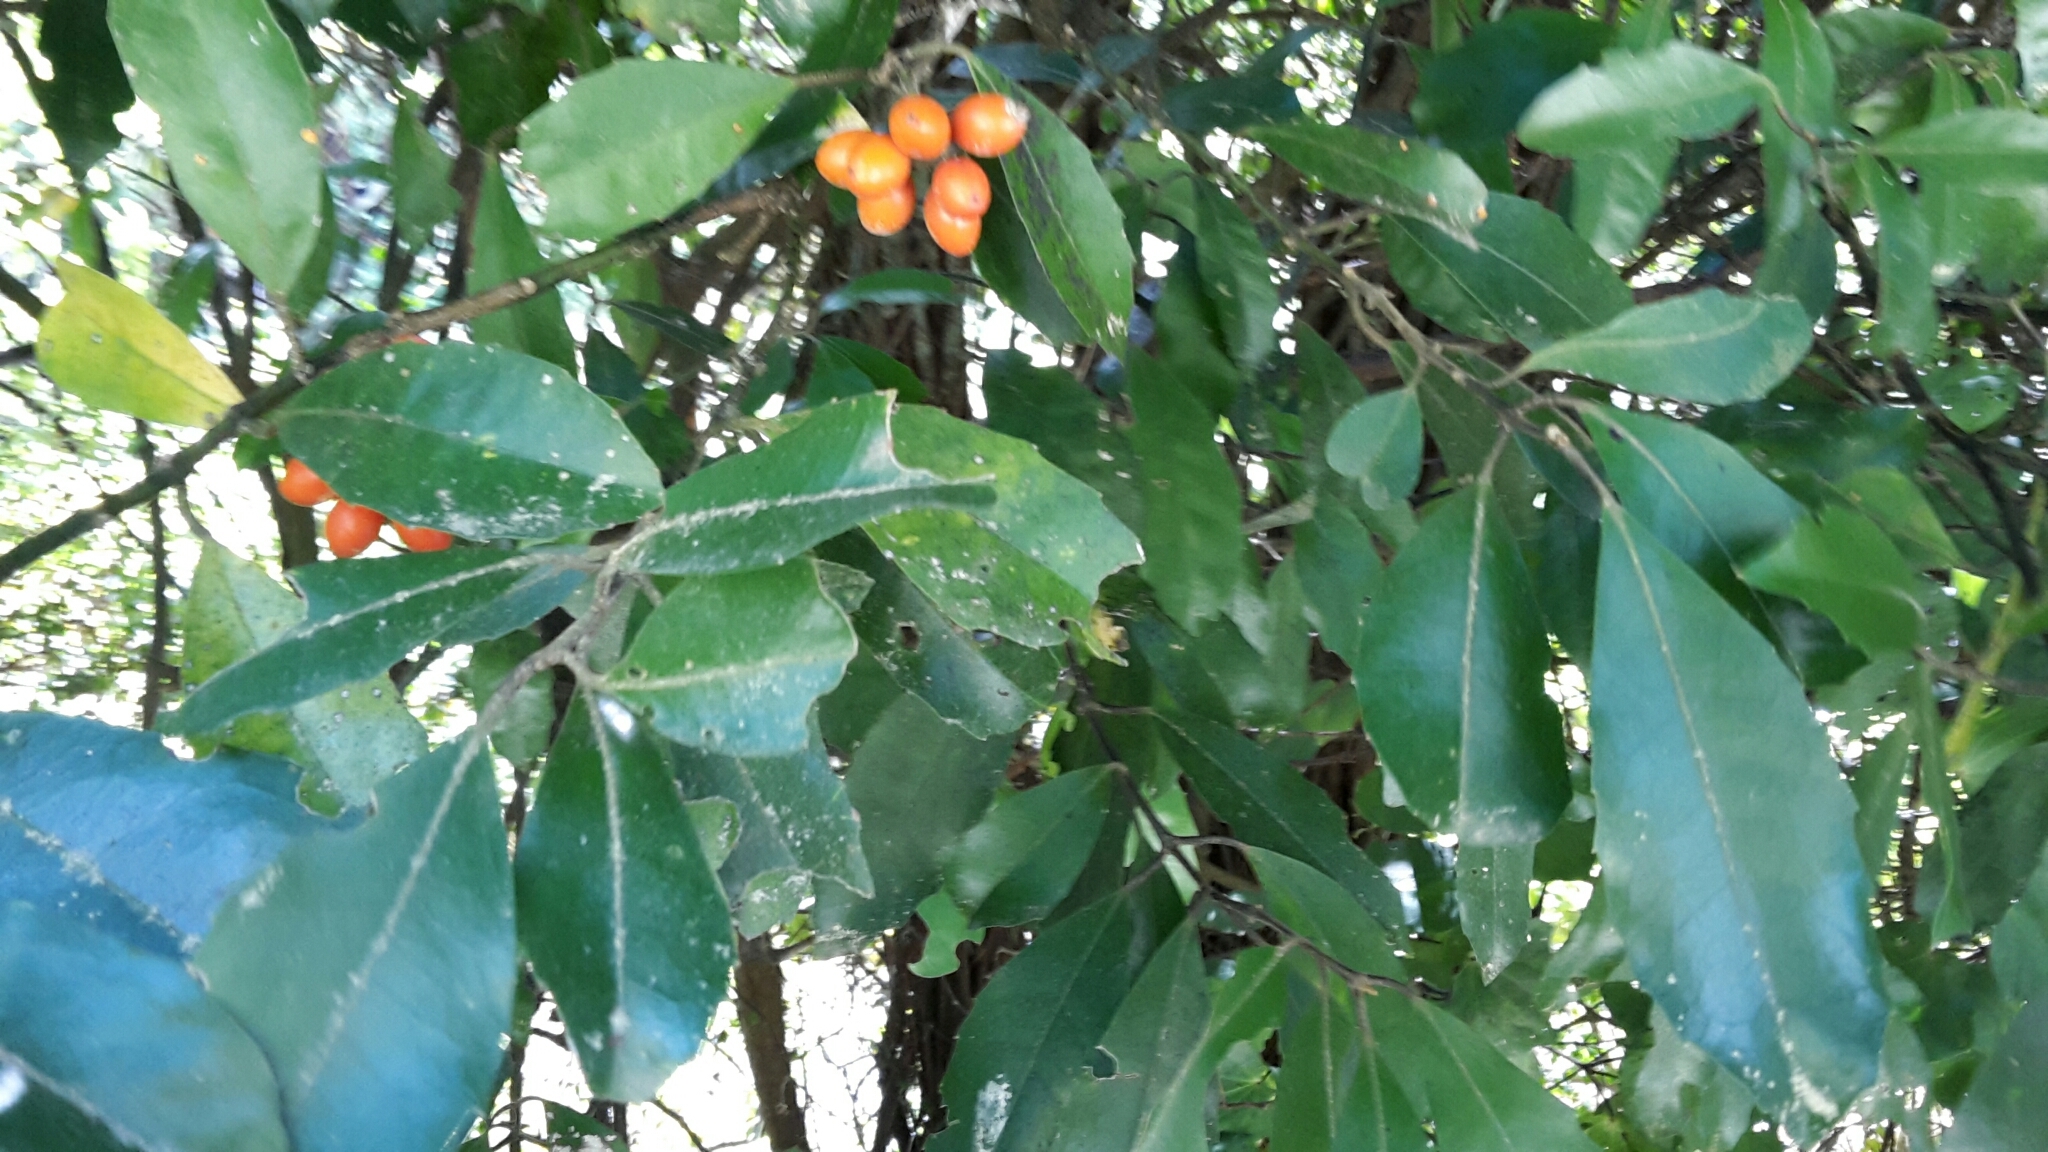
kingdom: Plantae
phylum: Tracheophyta
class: Magnoliopsida
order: Laurales
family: Monimiaceae
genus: Hedycarya
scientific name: Hedycarya arborea
